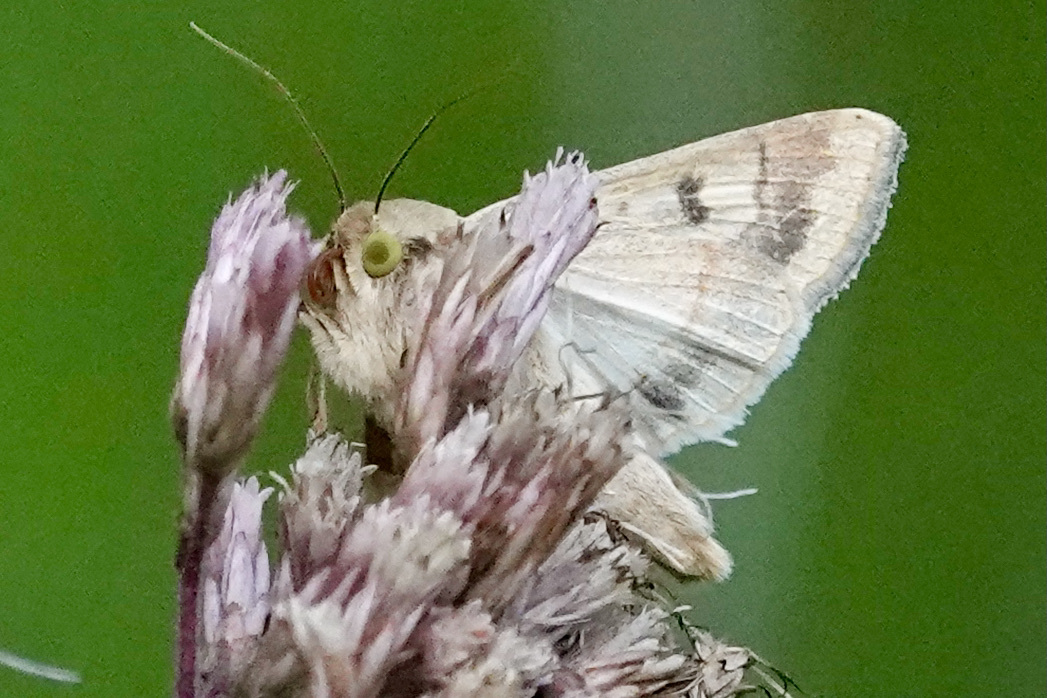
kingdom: Animalia
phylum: Arthropoda
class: Insecta
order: Lepidoptera
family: Noctuidae
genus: Helicoverpa
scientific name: Helicoverpa zea
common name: Bollworm
